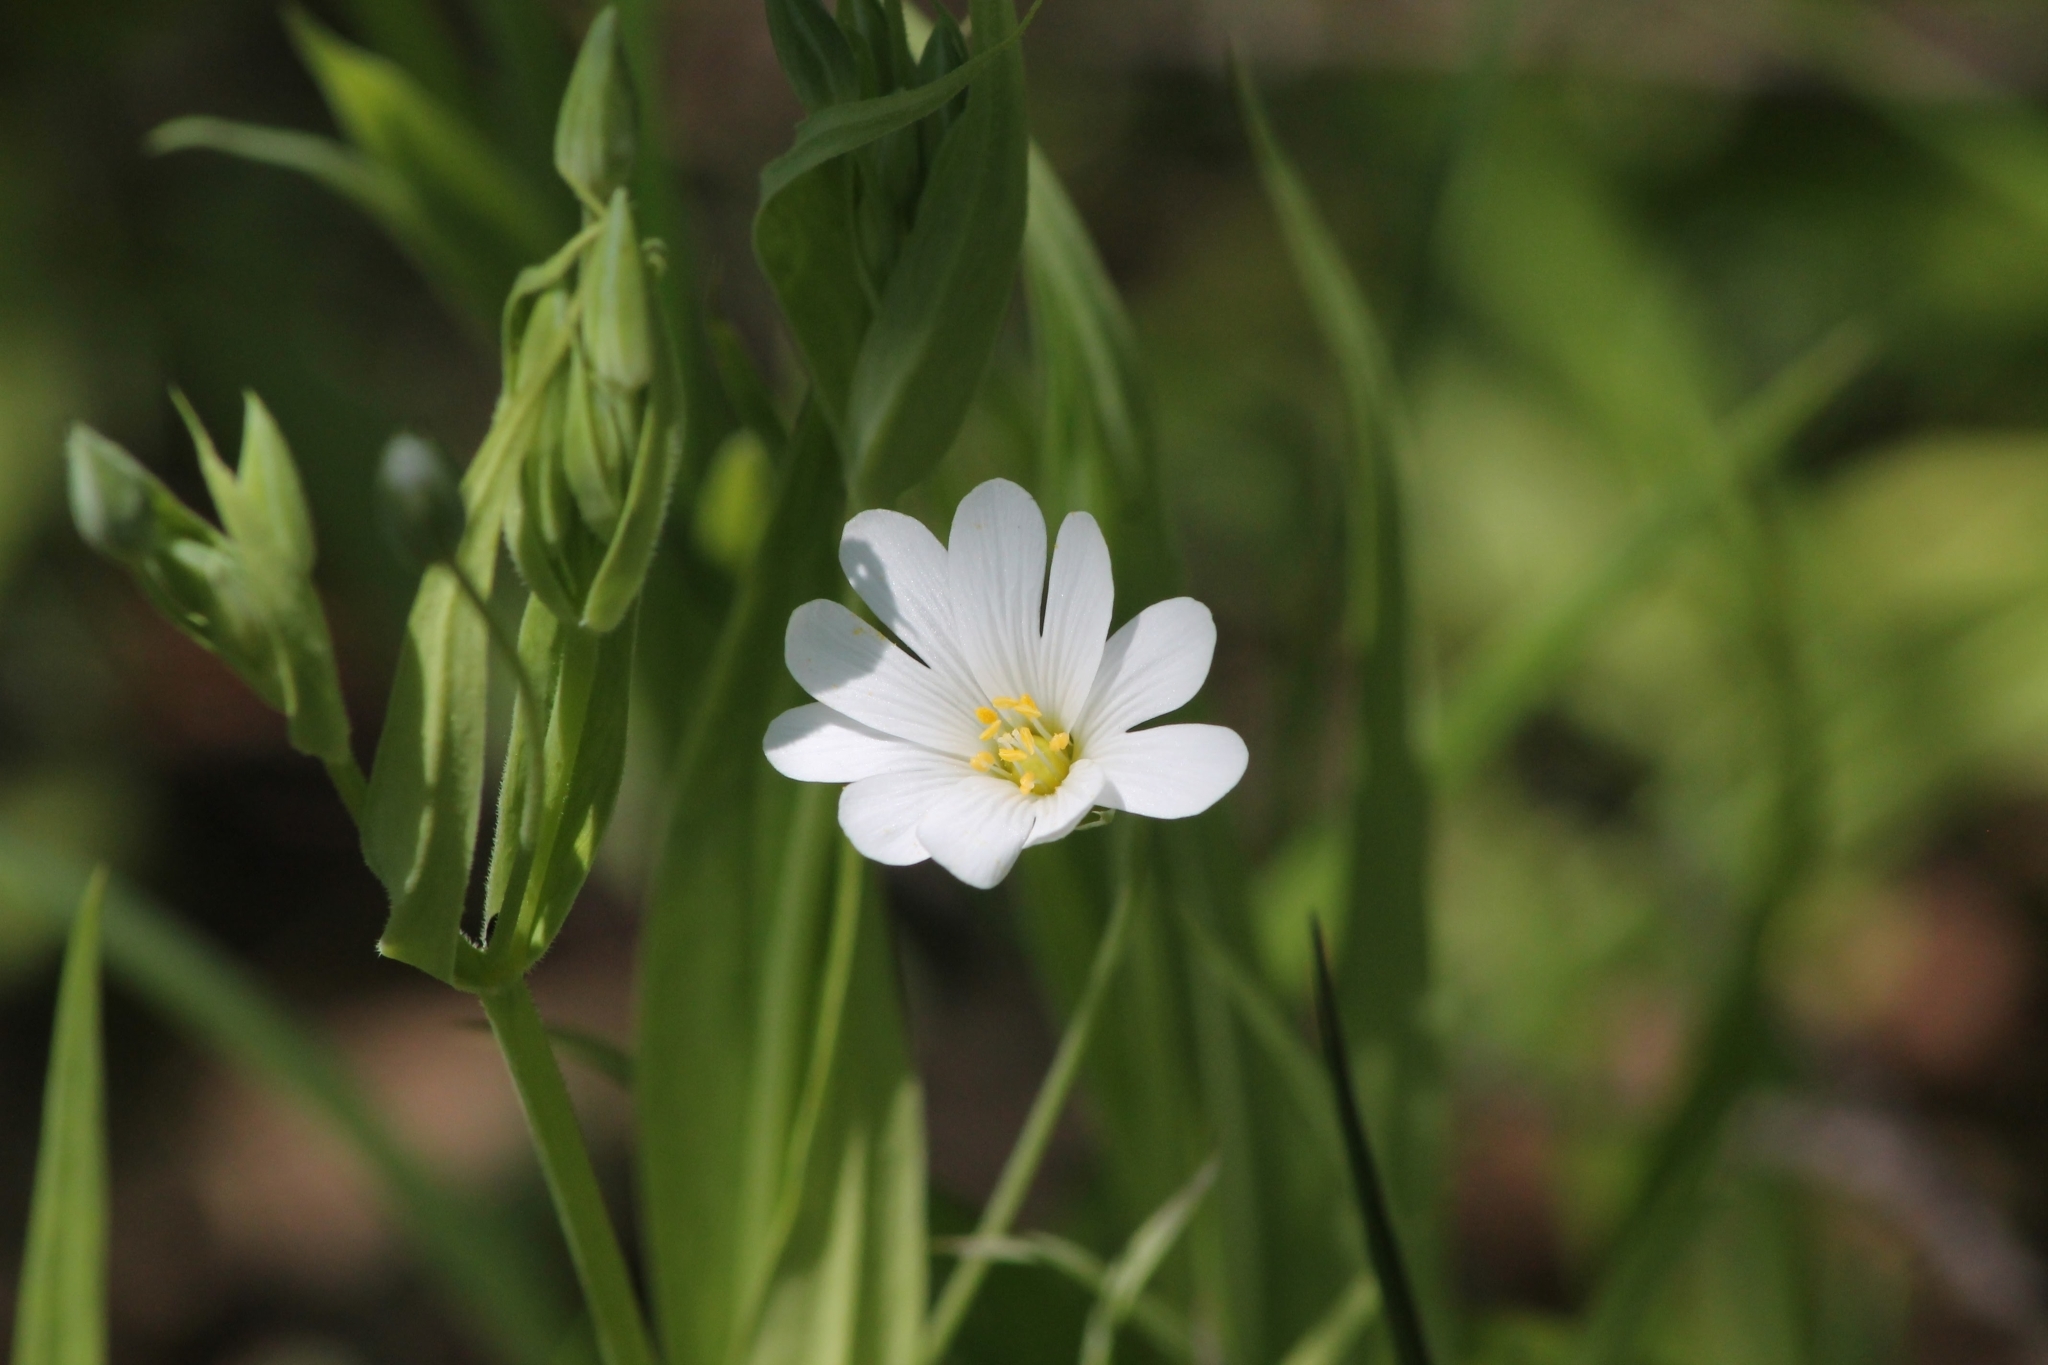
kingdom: Plantae
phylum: Tracheophyta
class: Magnoliopsida
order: Caryophyllales
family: Caryophyllaceae
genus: Rabelera
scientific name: Rabelera holostea
